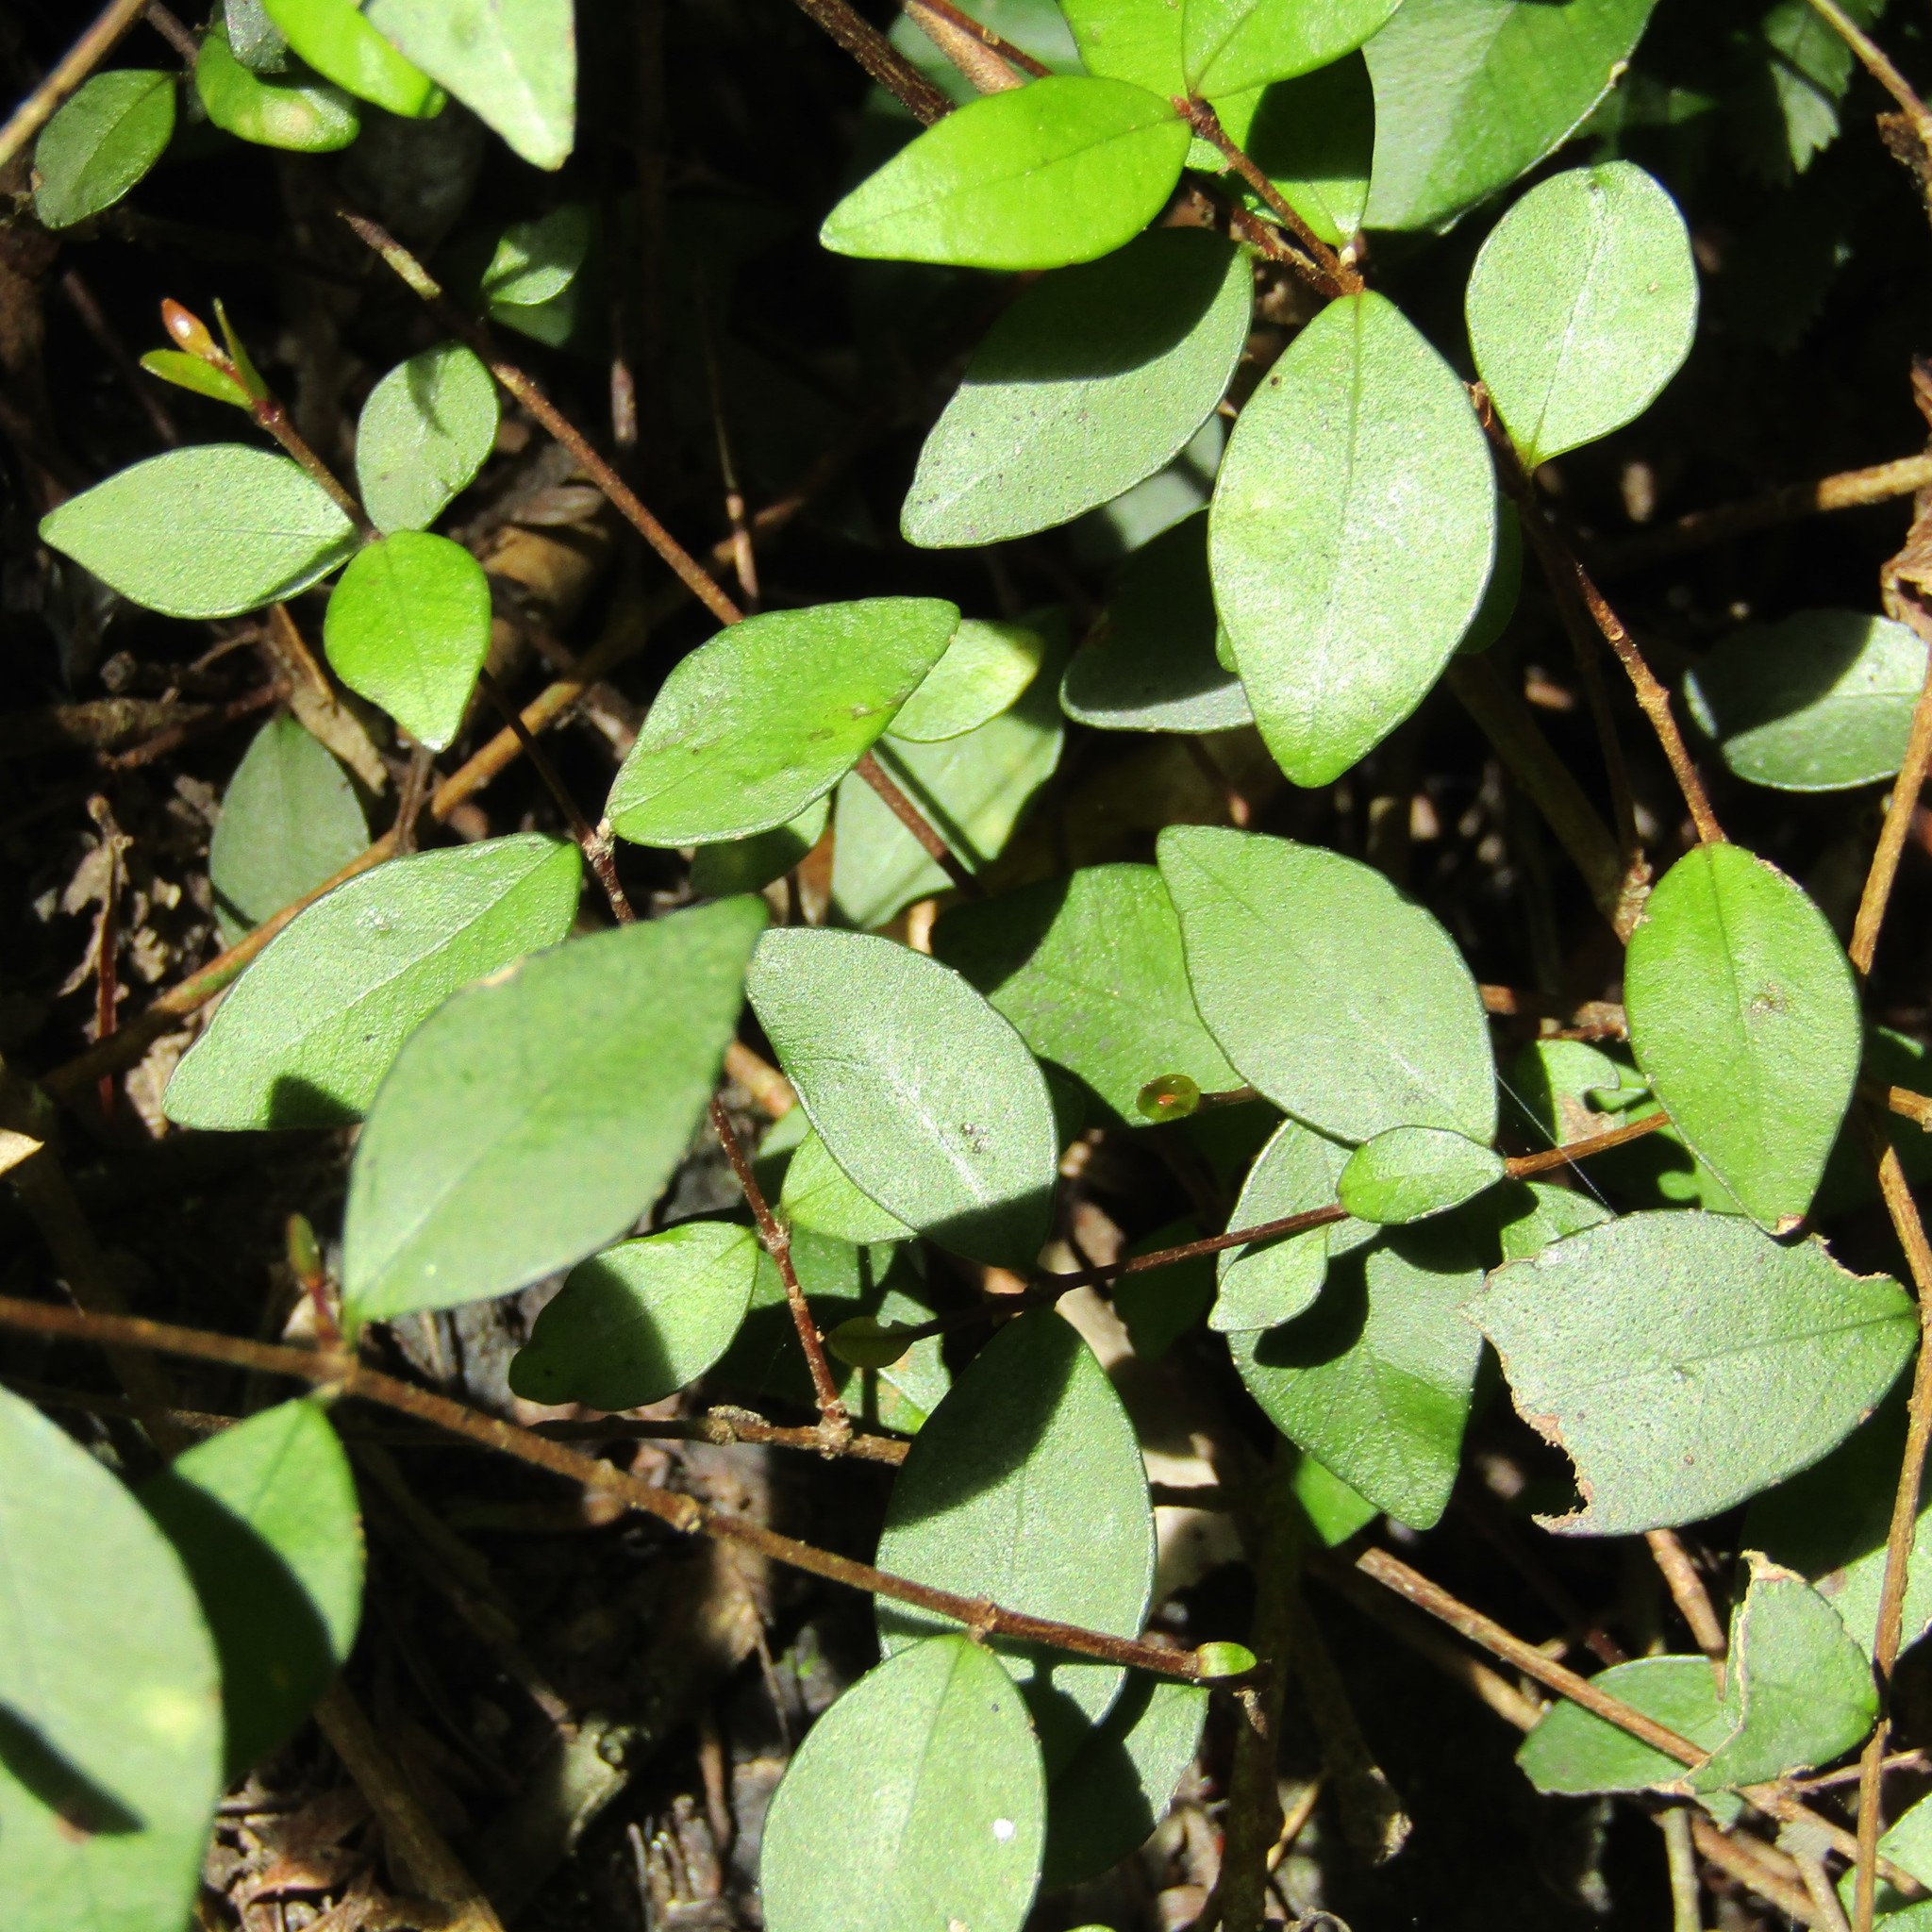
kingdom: Plantae
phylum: Tracheophyta
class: Magnoliopsida
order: Myrtales
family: Myrtaceae
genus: Metrosideros
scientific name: Metrosideros fulgens
